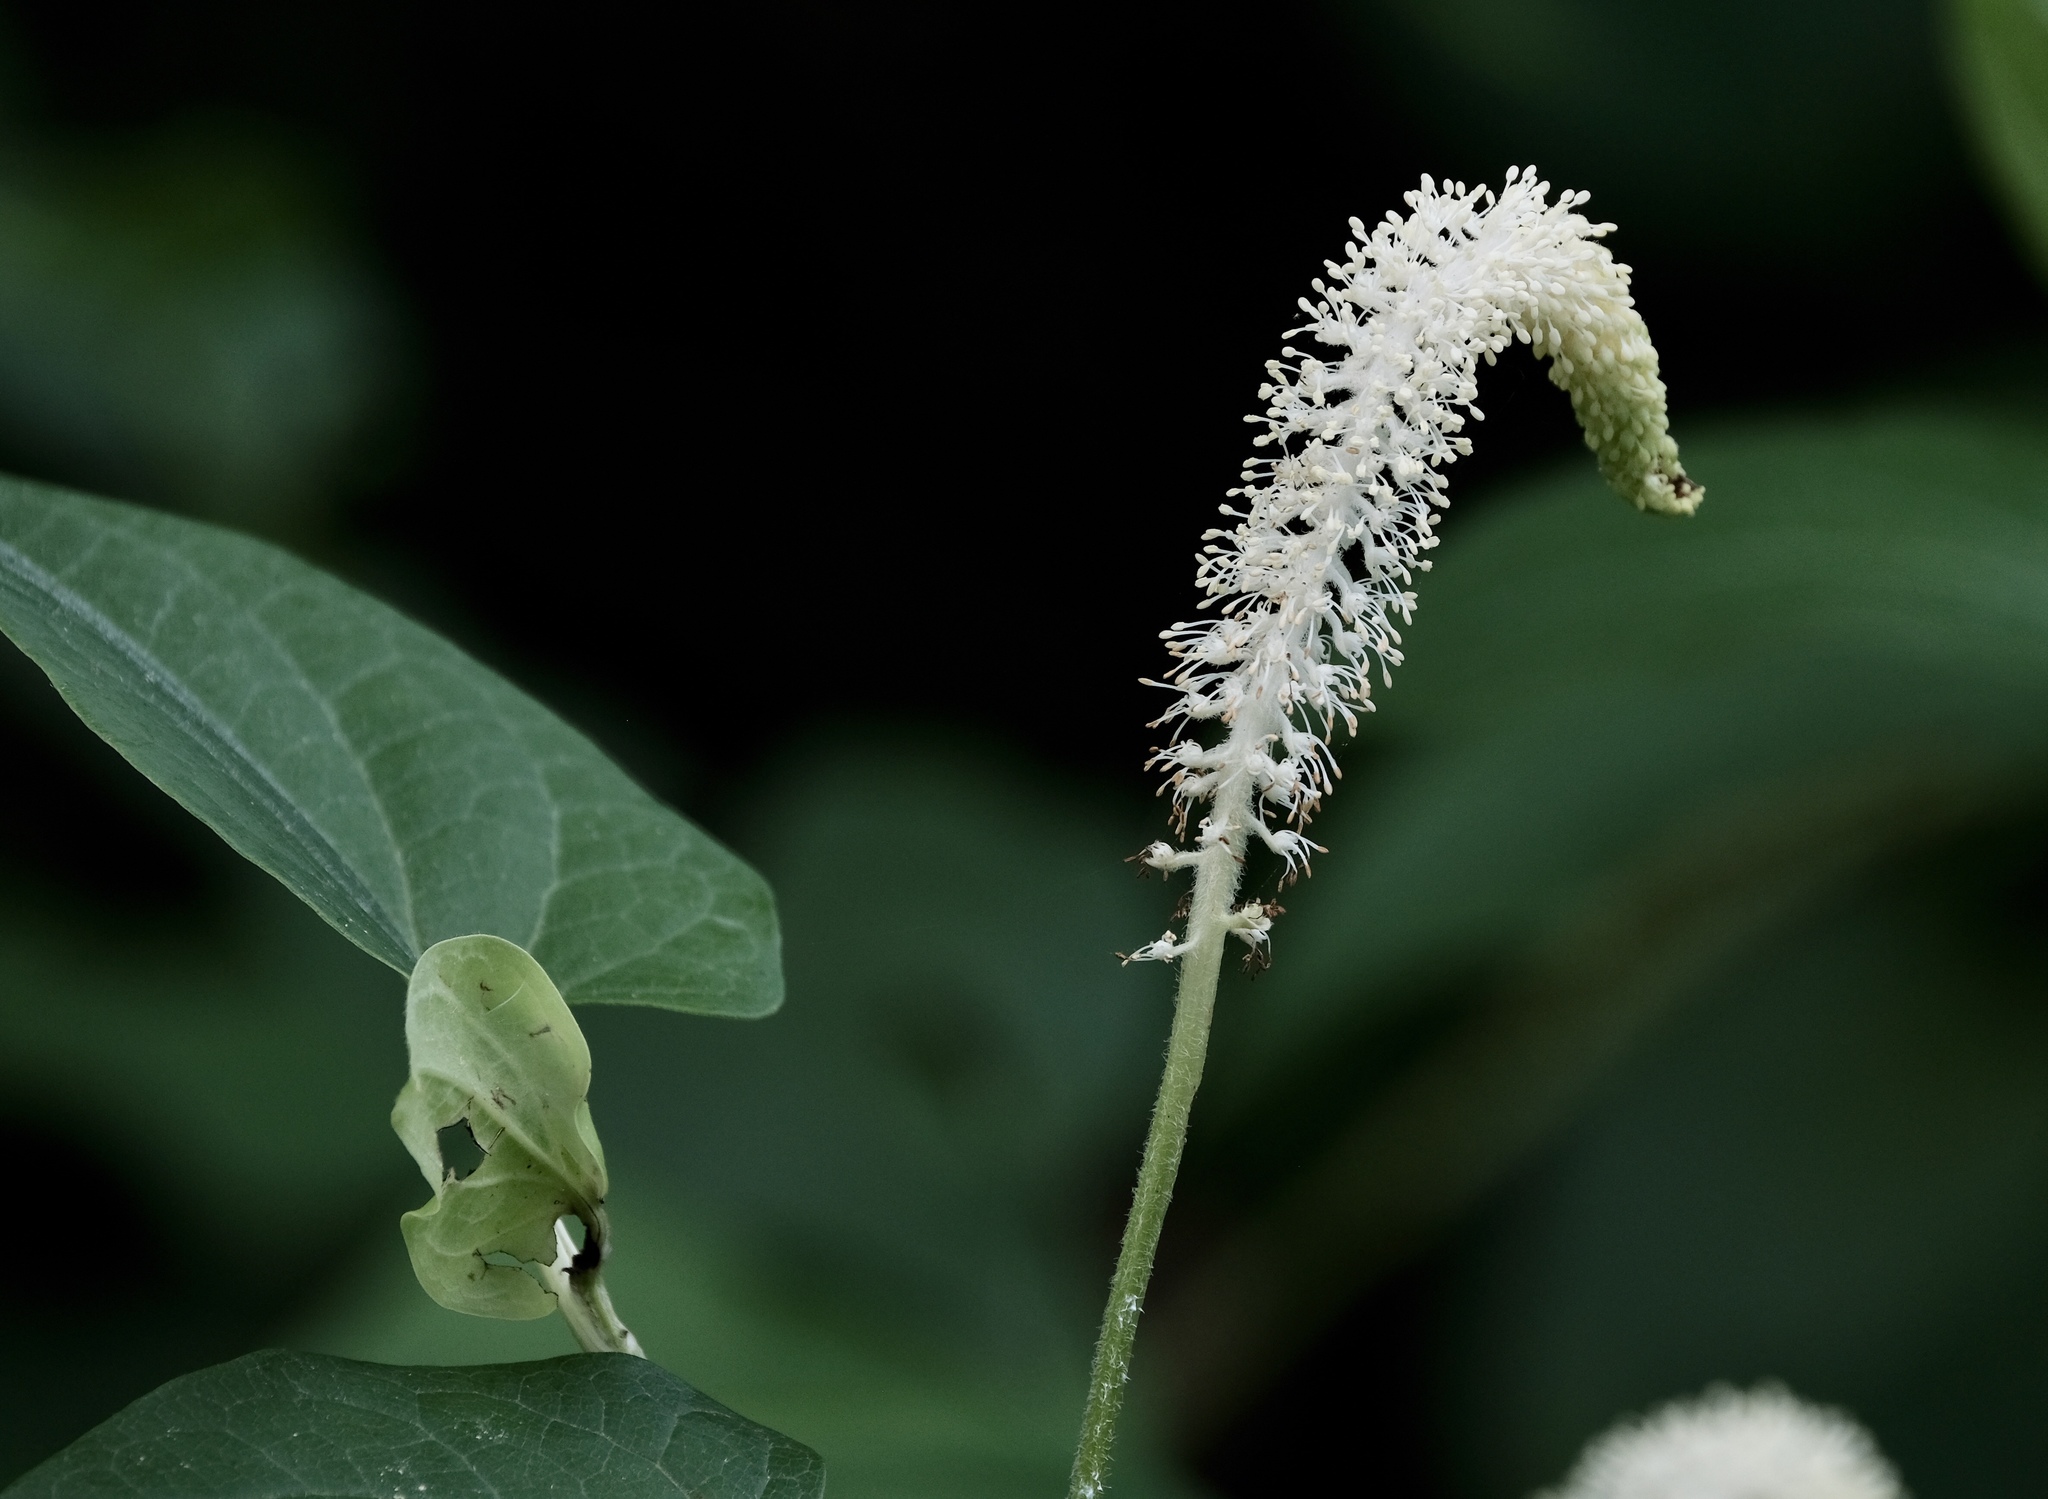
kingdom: Plantae
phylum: Tracheophyta
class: Magnoliopsida
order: Piperales
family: Saururaceae
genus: Saururus
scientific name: Saururus cernuus
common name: Lizard's-tail
